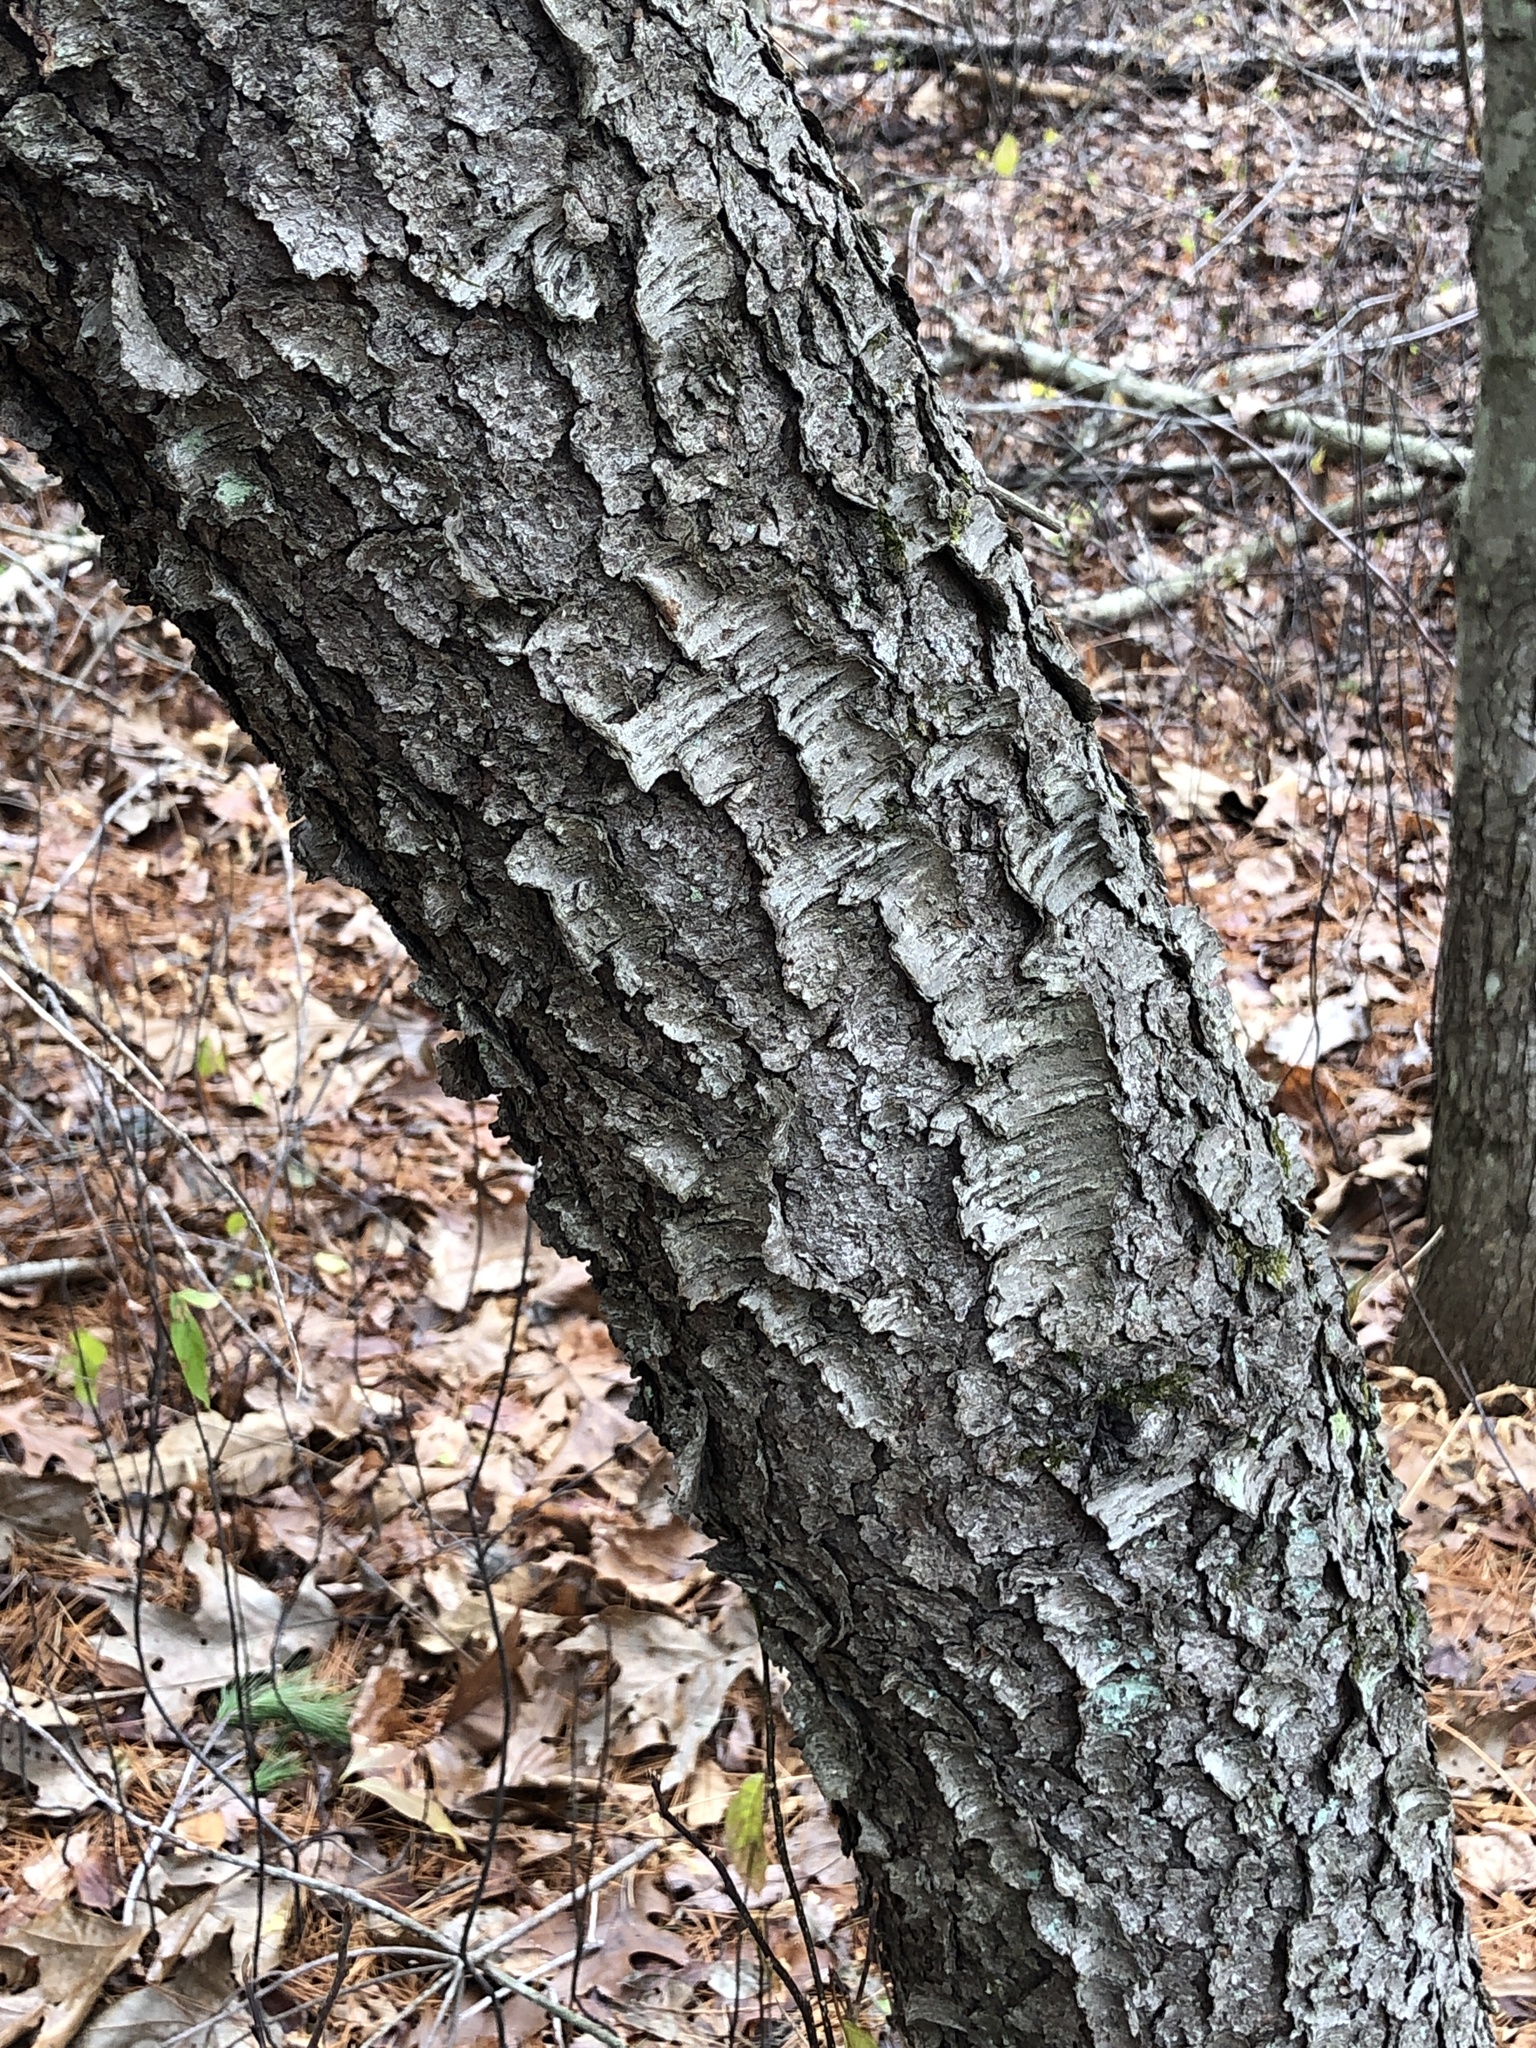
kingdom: Plantae
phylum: Tracheophyta
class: Magnoliopsida
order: Rosales
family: Rosaceae
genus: Prunus
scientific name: Prunus serotina
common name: Black cherry
